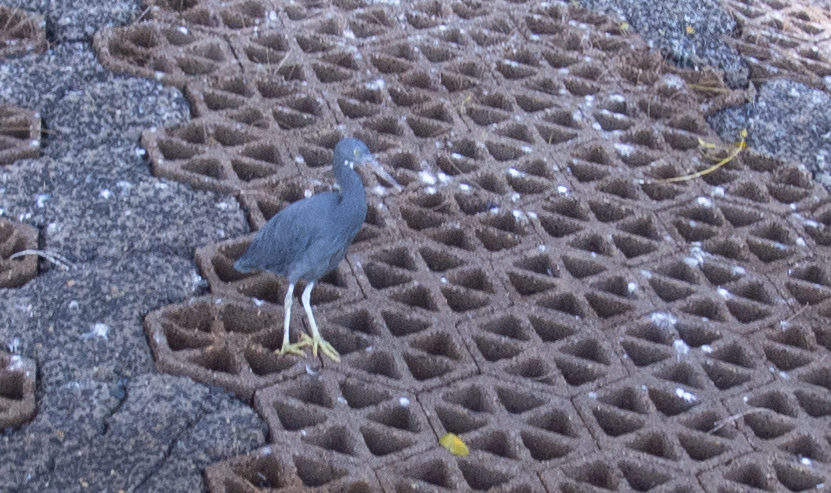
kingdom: Animalia
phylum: Chordata
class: Aves
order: Pelecaniformes
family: Ardeidae
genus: Egretta
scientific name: Egretta sacra
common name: Pacific reef heron
